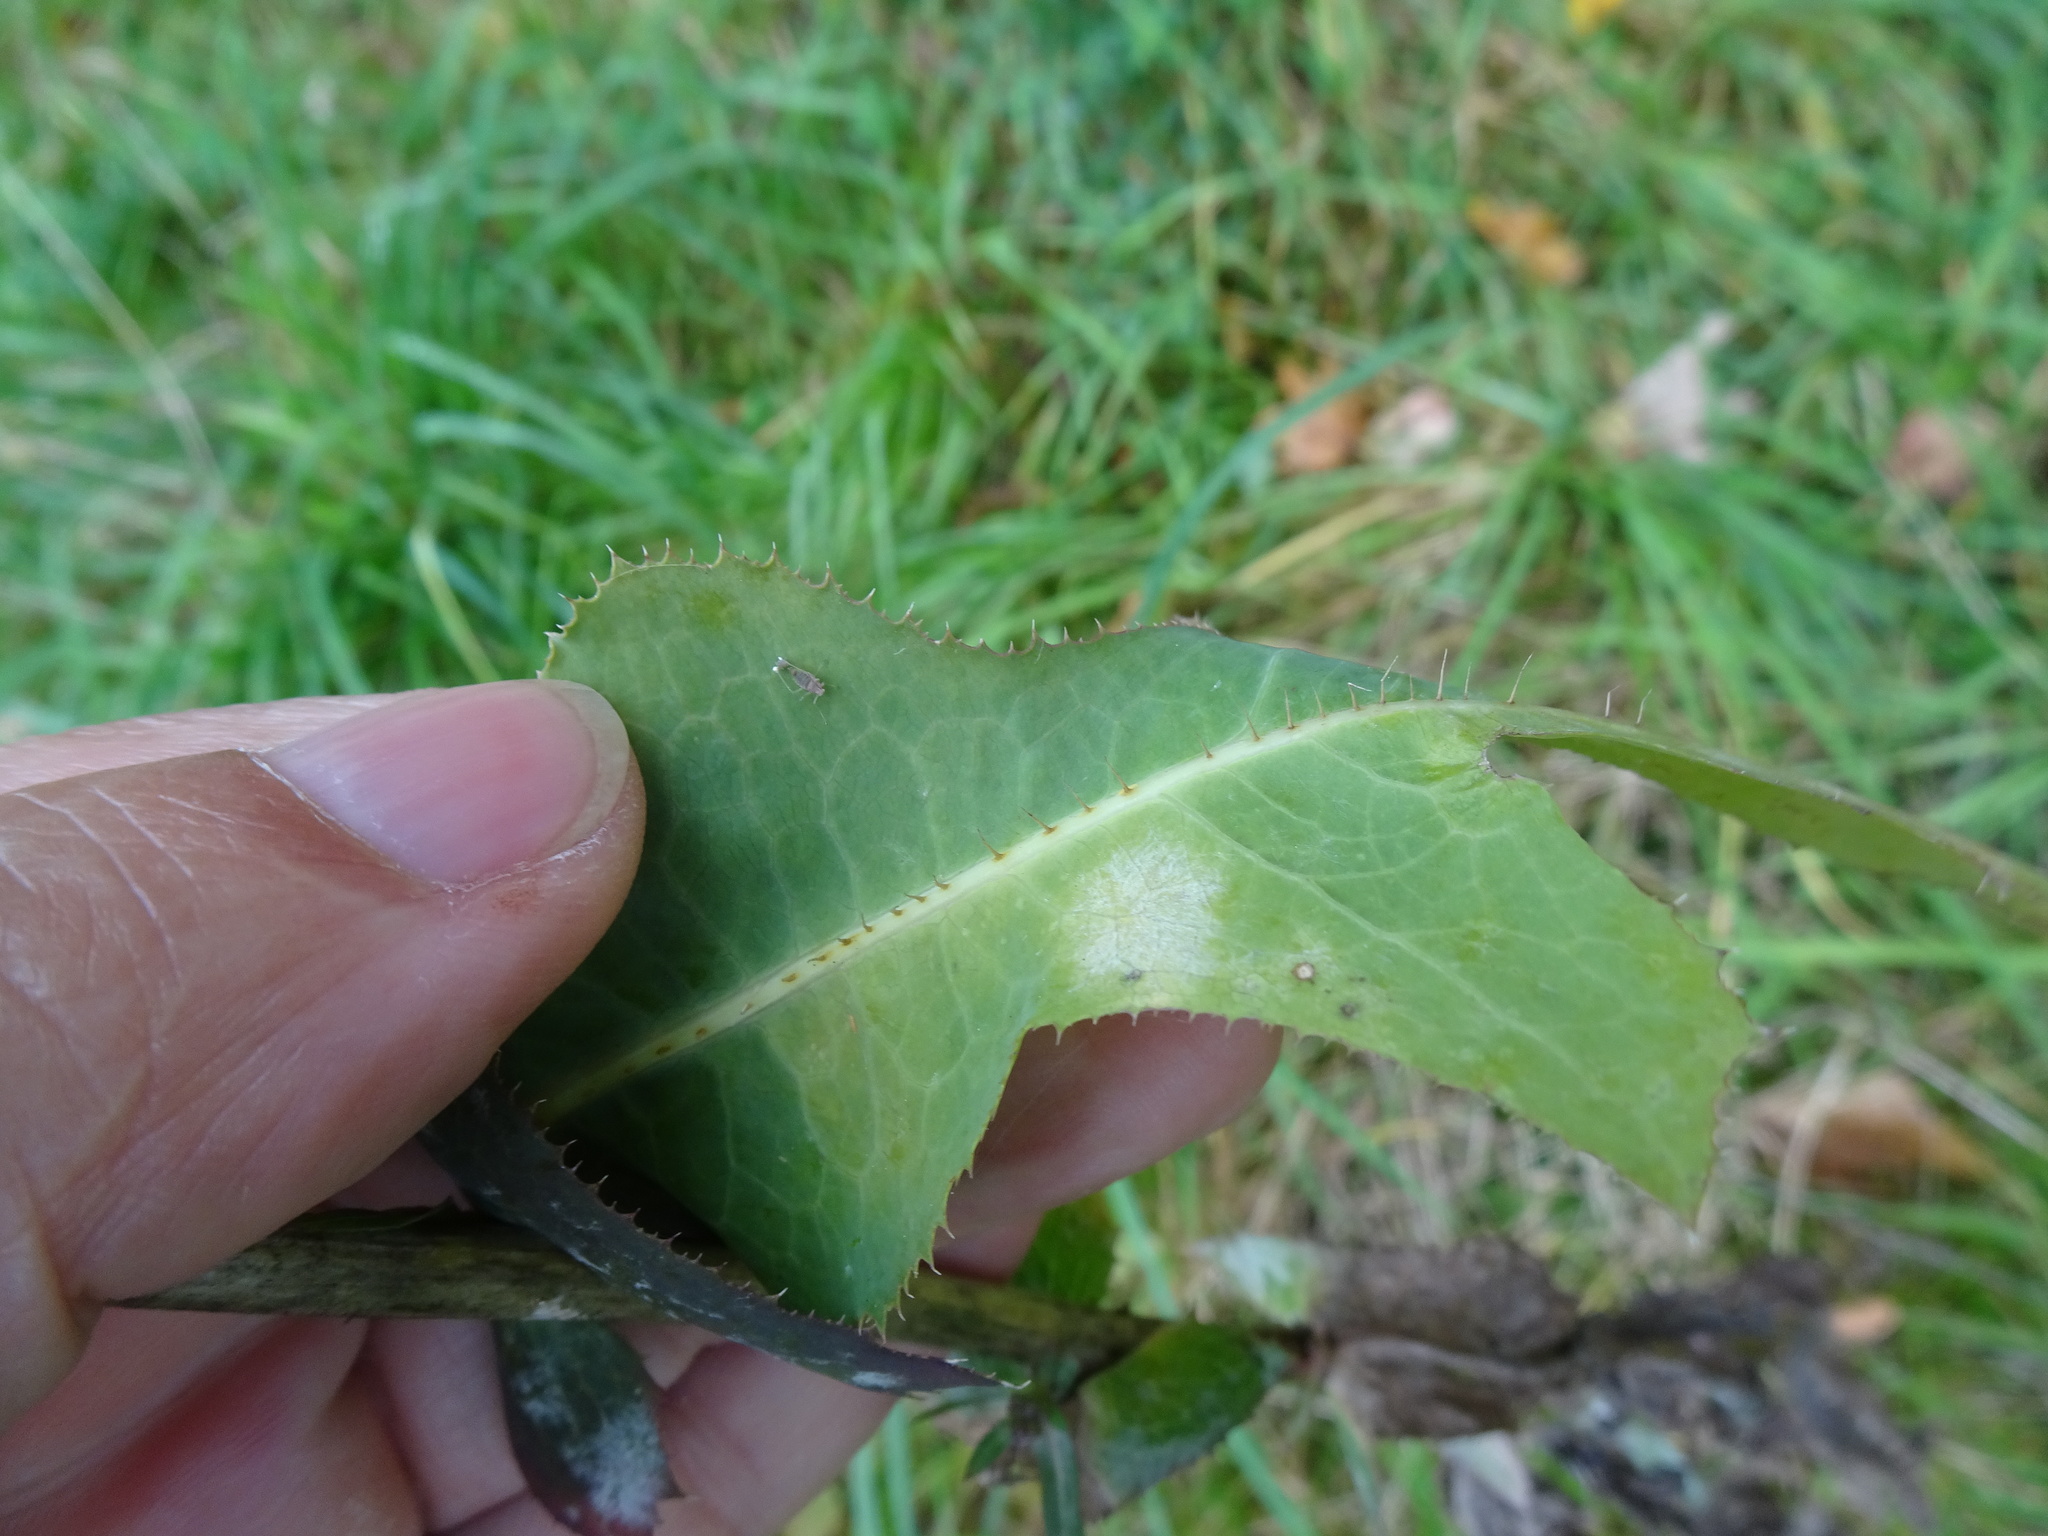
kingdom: Plantae
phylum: Tracheophyta
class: Magnoliopsida
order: Asterales
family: Asteraceae
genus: Lactuca
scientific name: Lactuca serriola
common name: Prickly lettuce
